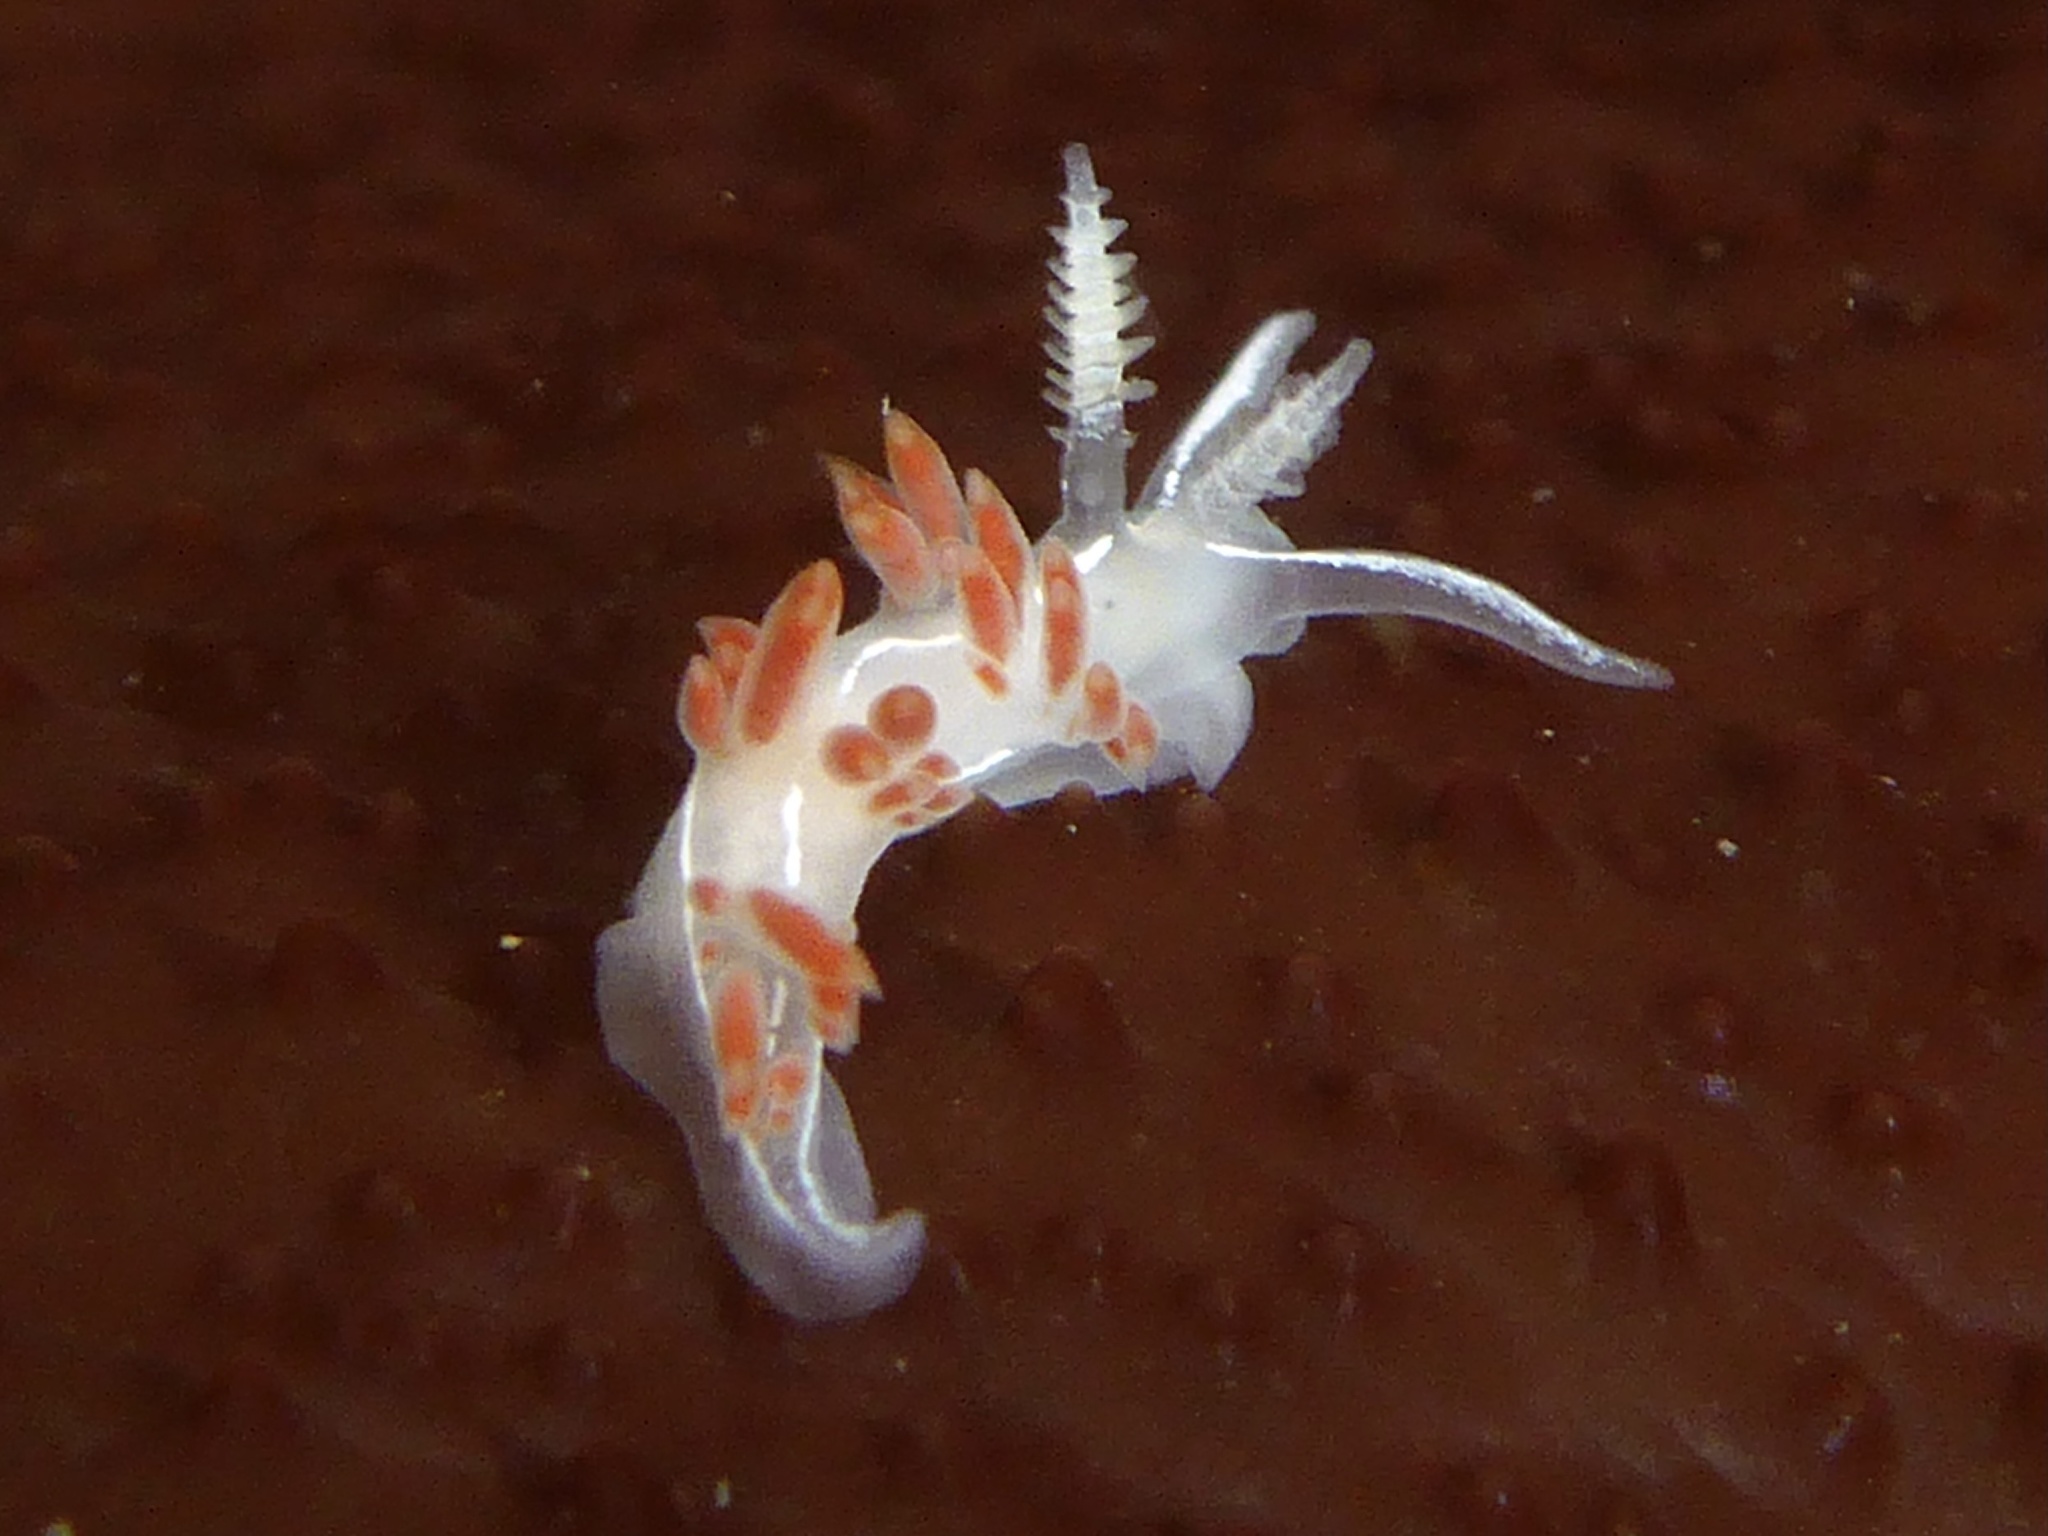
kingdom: Animalia
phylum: Mollusca
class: Gastropoda
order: Nudibranchia
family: Coryphellidae
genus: Coryphella
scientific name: Coryphella trilineata
